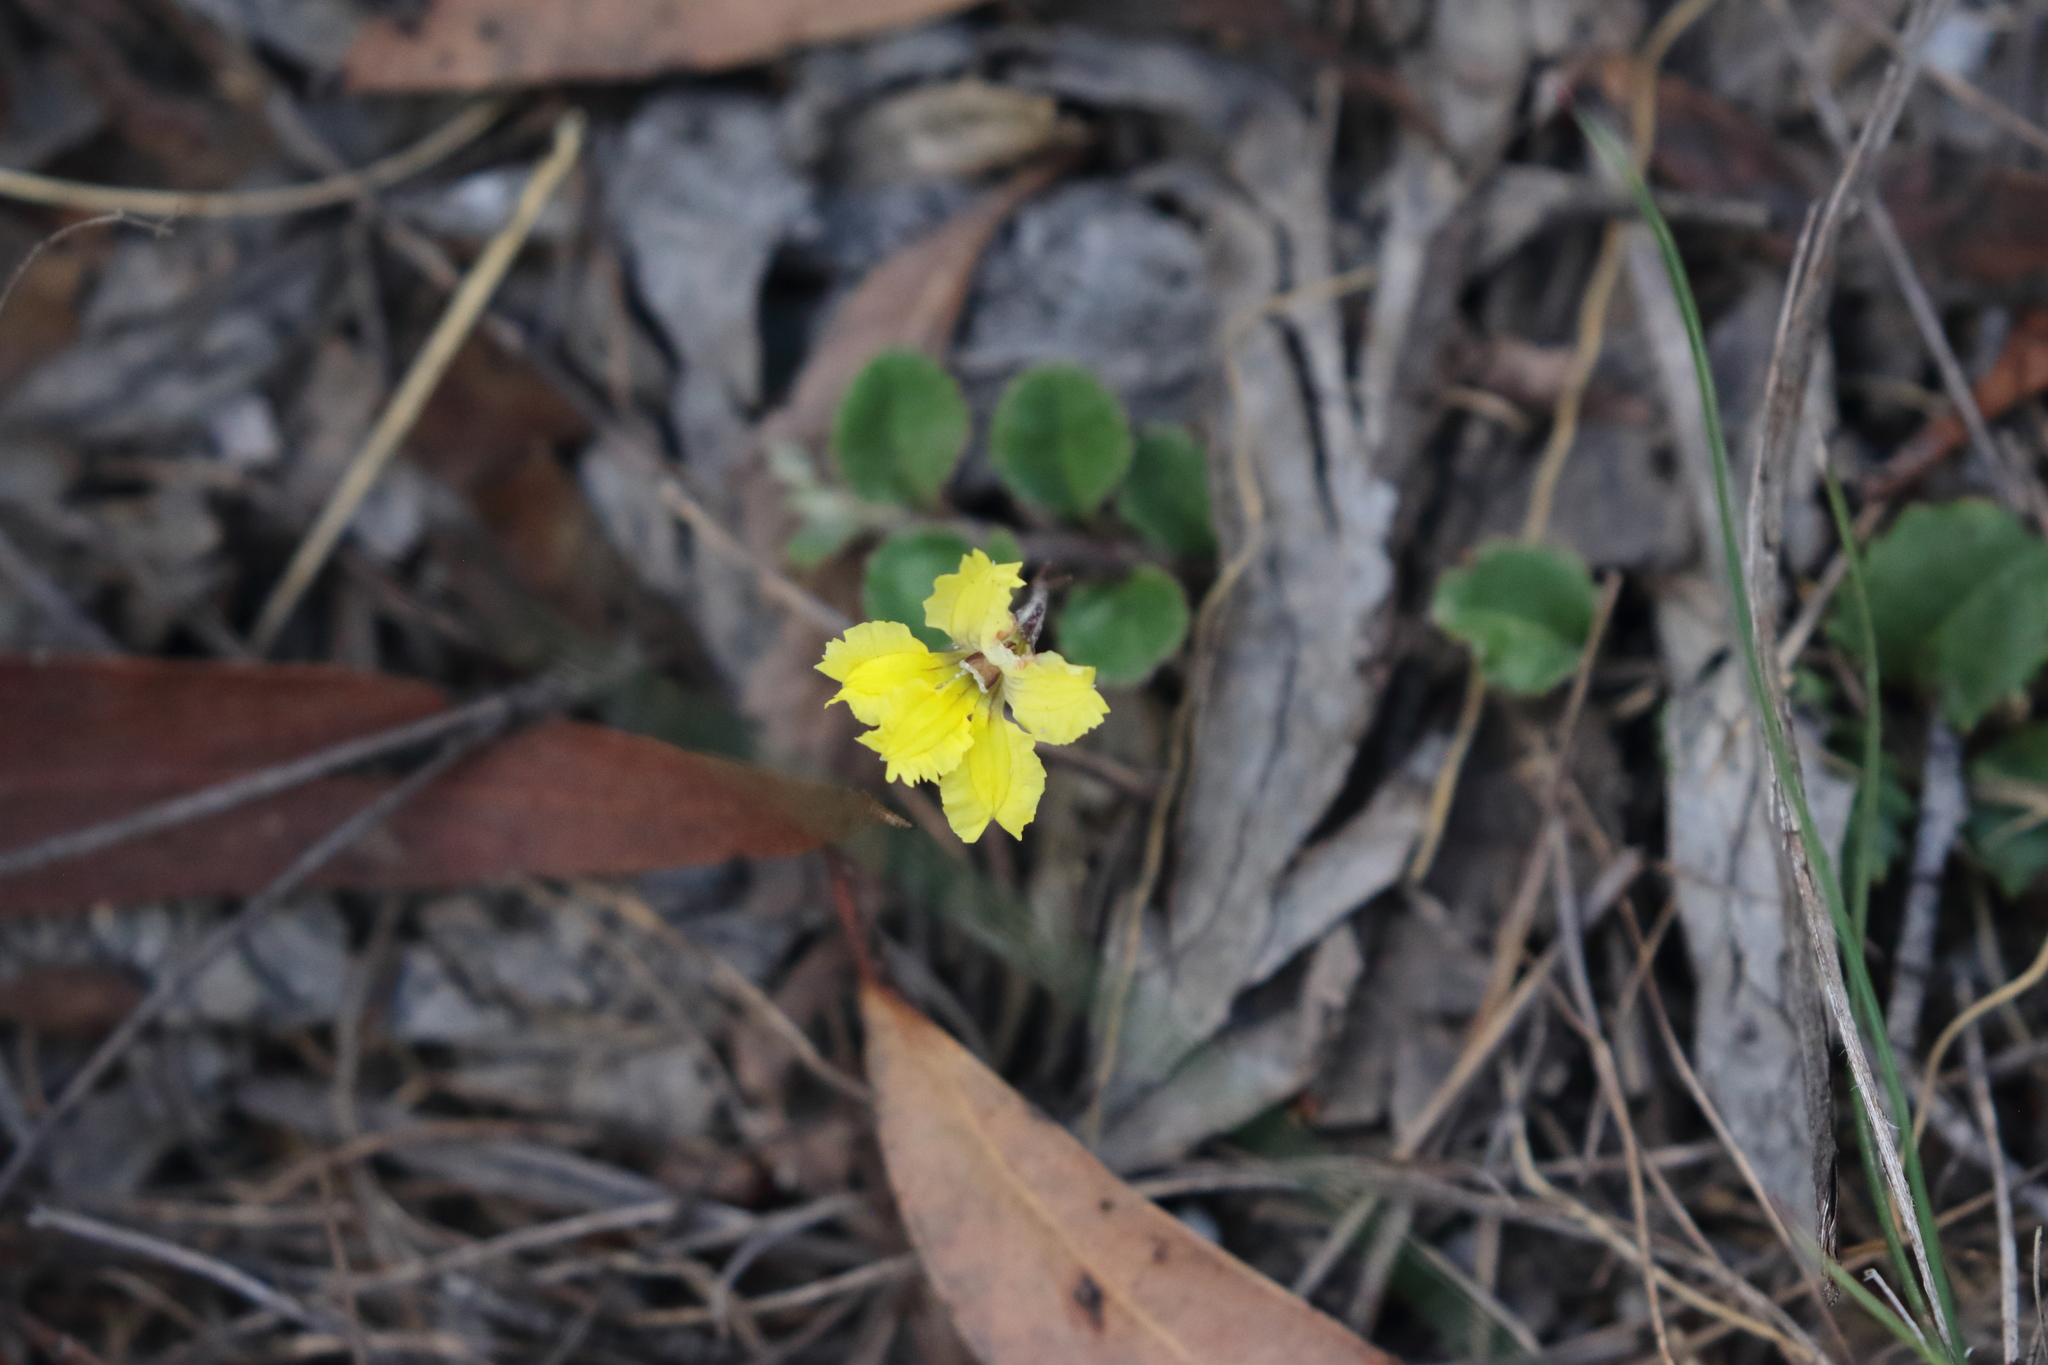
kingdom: Plantae
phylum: Tracheophyta
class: Magnoliopsida
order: Asterales
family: Goodeniaceae
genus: Goodenia
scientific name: Goodenia rotundifolia
